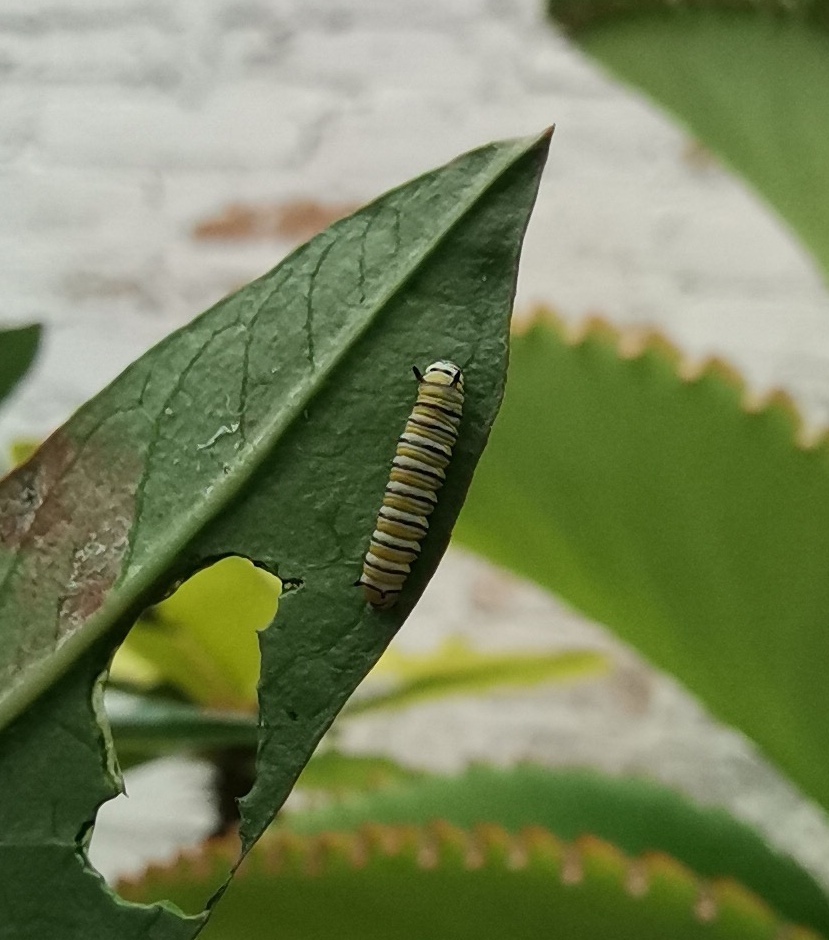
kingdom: Animalia
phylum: Arthropoda
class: Insecta
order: Lepidoptera
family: Nymphalidae
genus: Danaus
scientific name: Danaus plexippus
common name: Monarch
